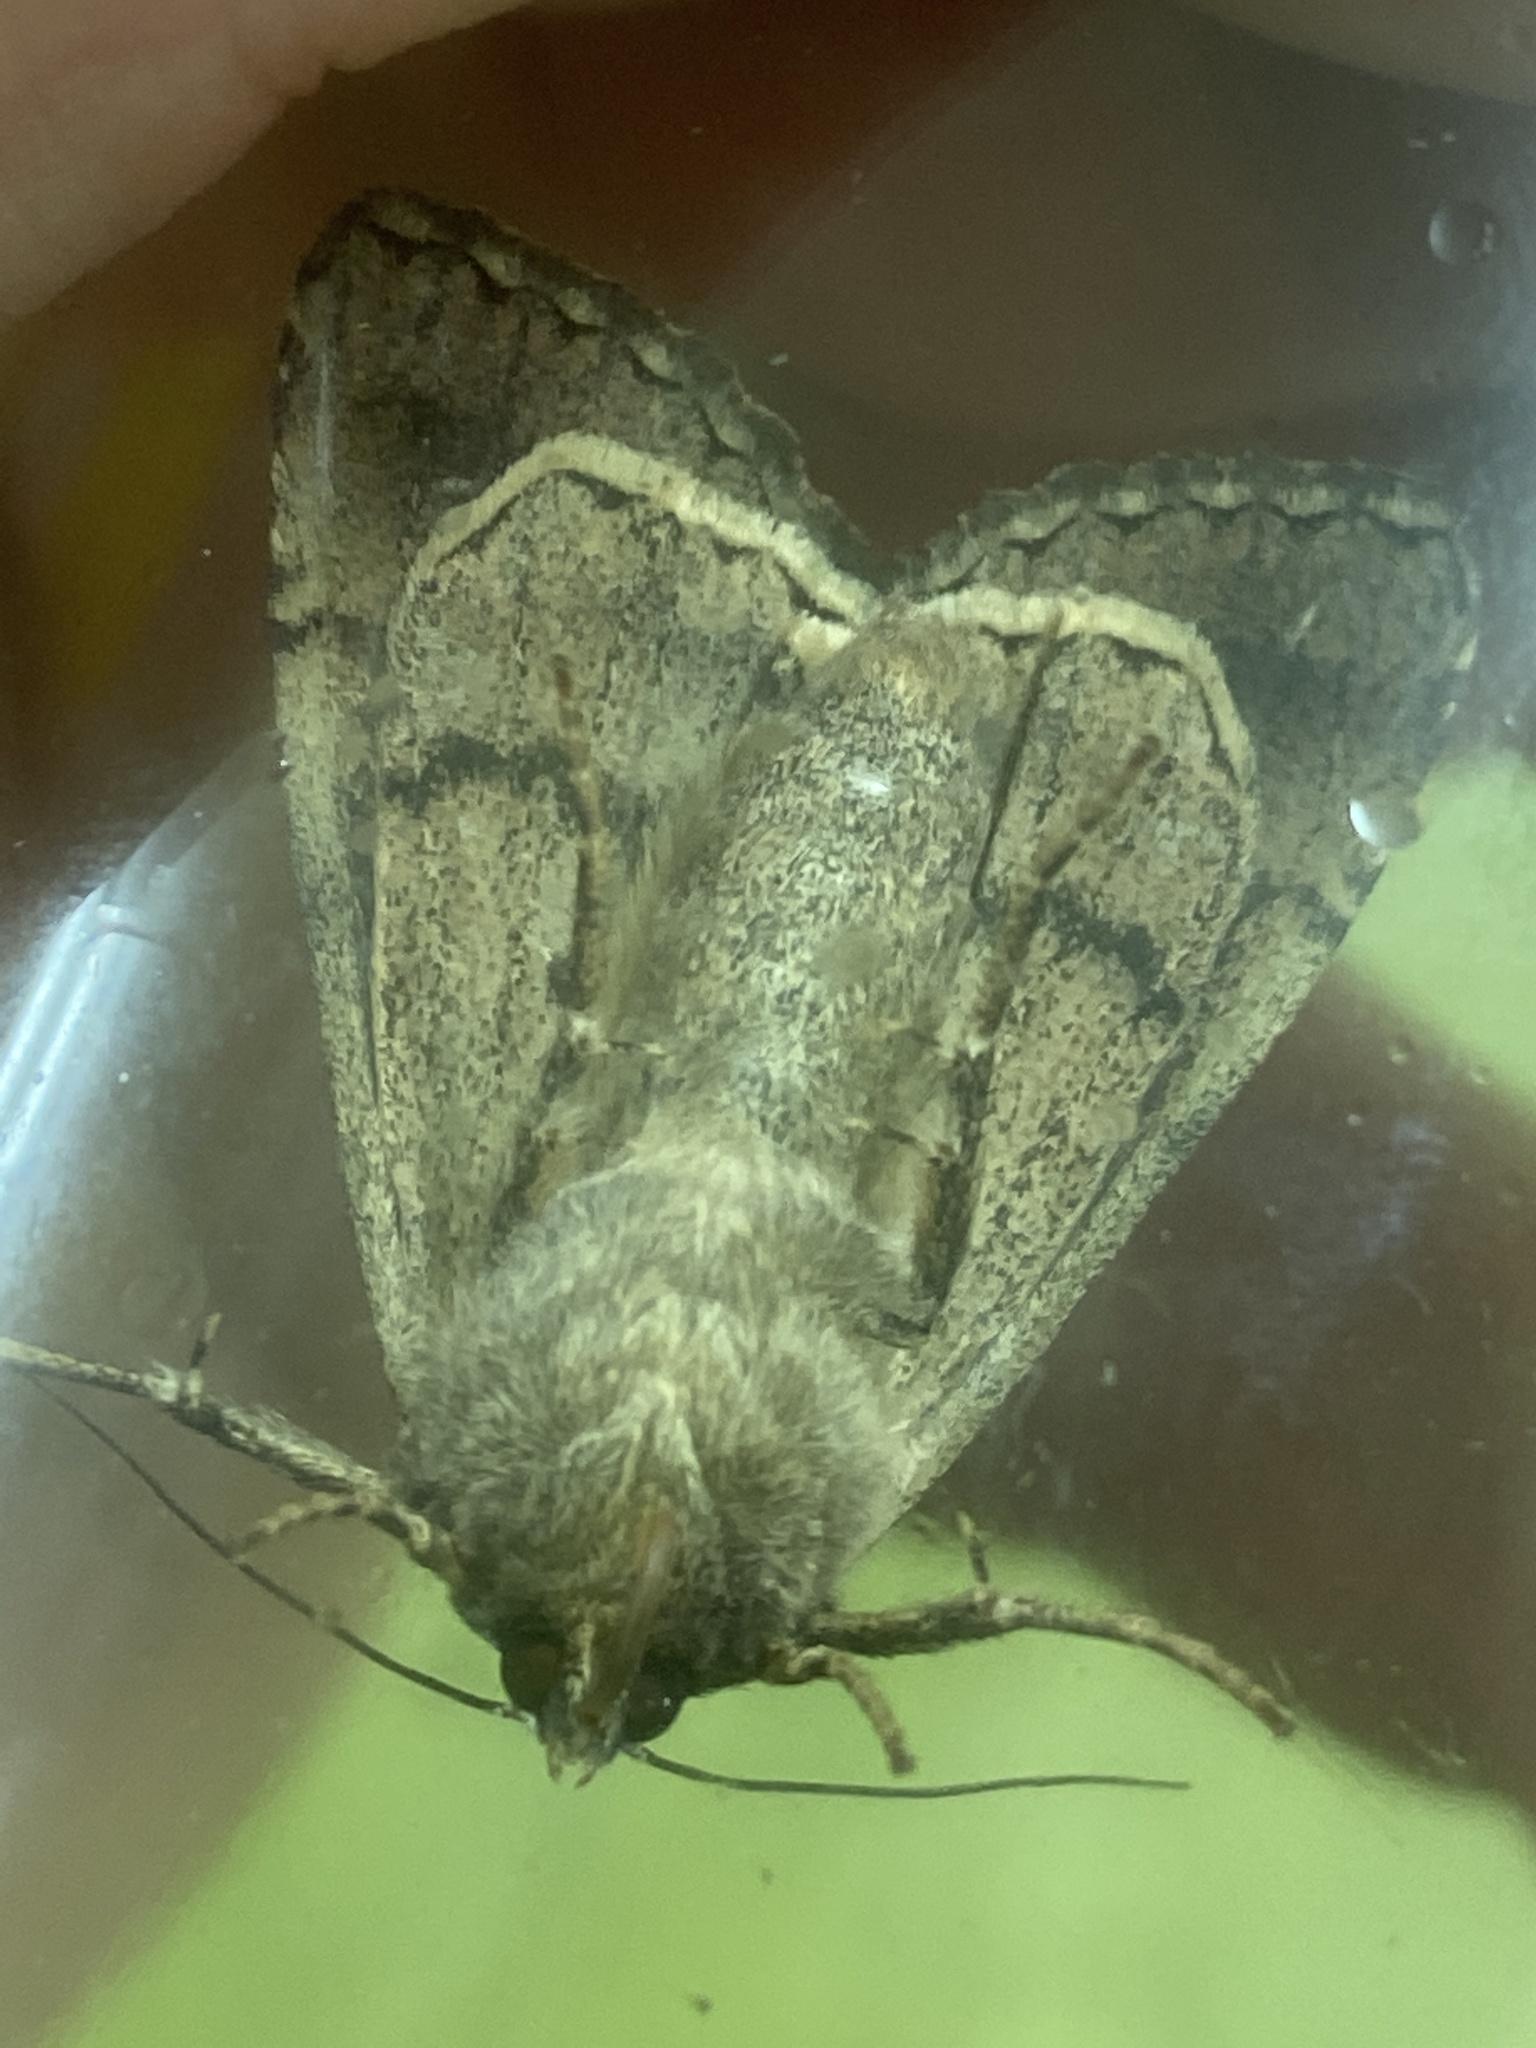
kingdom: Animalia
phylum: Arthropoda
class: Insecta
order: Lepidoptera
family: Noctuidae
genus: Anaplectoides
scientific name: Anaplectoides prasina
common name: Green arches
